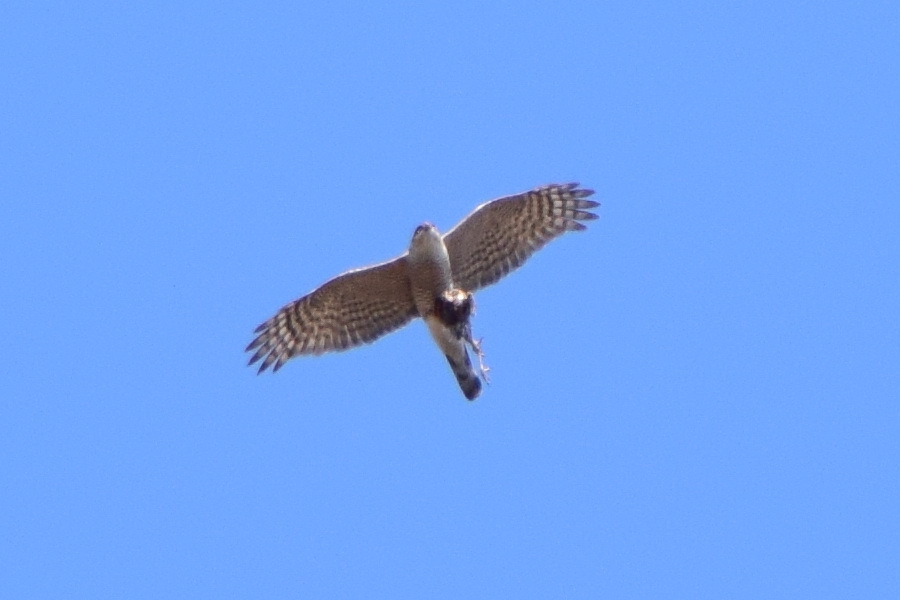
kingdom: Animalia
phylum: Chordata
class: Aves
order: Accipitriformes
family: Accipitridae
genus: Accipiter
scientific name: Accipiter nisus
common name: Eurasian sparrowhawk
